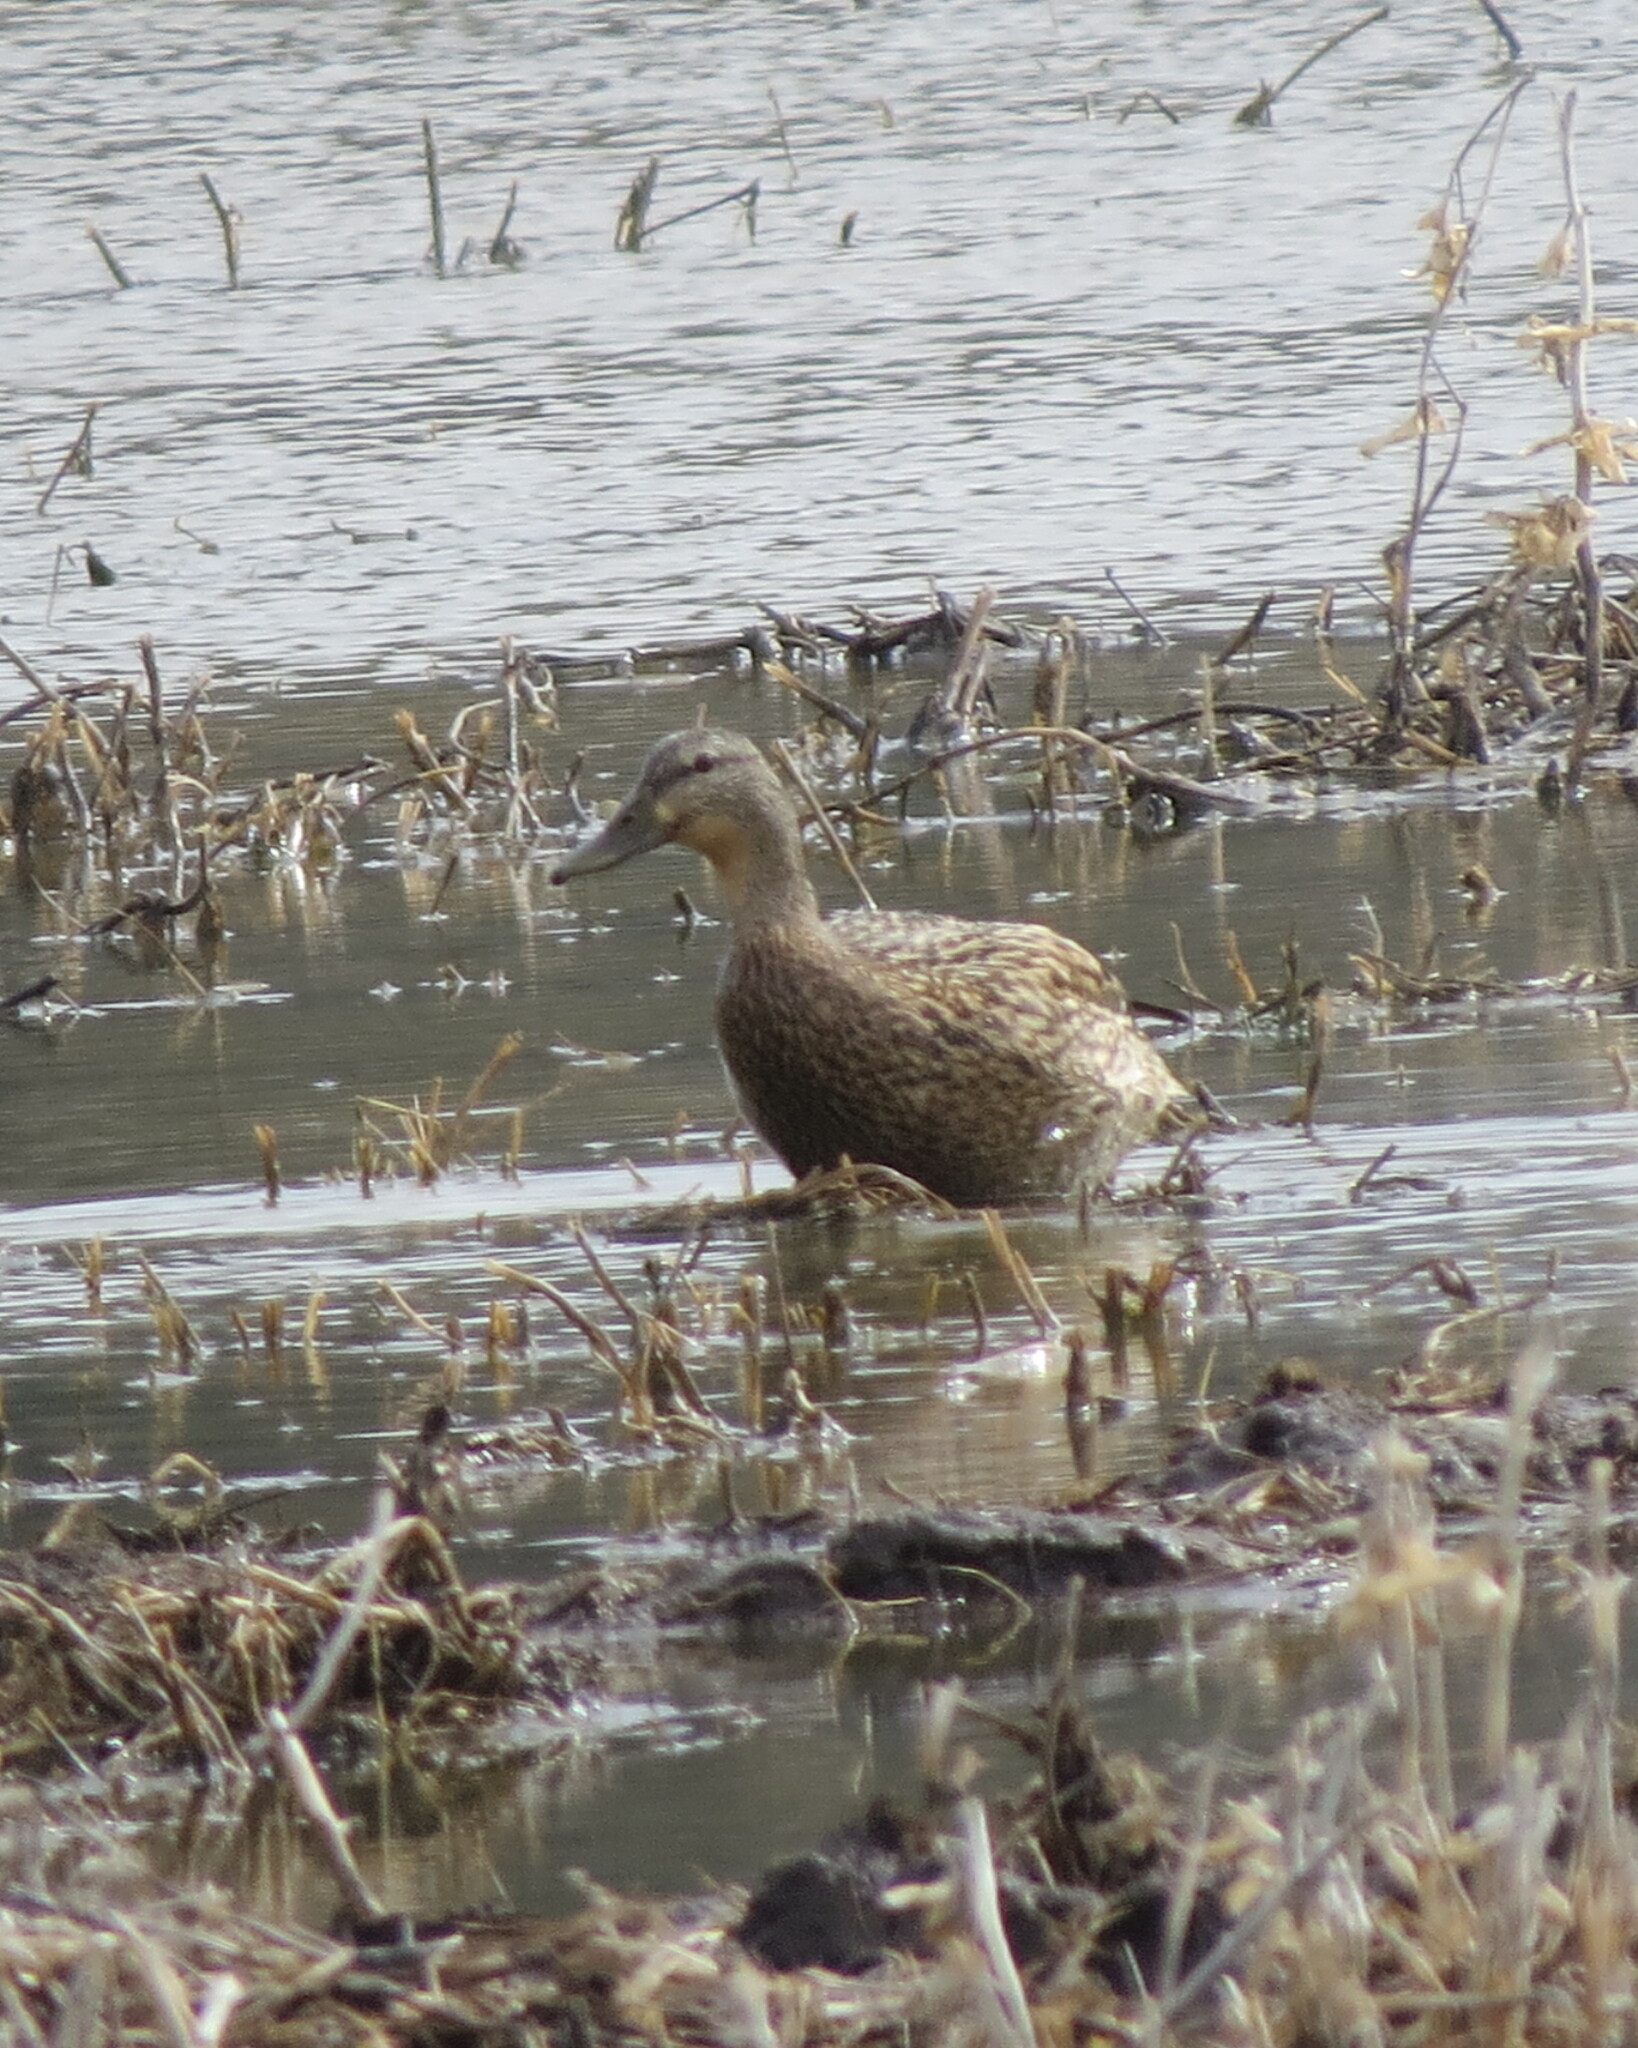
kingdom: Animalia
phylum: Chordata
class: Aves
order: Anseriformes
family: Anatidae
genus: Anas
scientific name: Anas platyrhynchos
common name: Mallard
